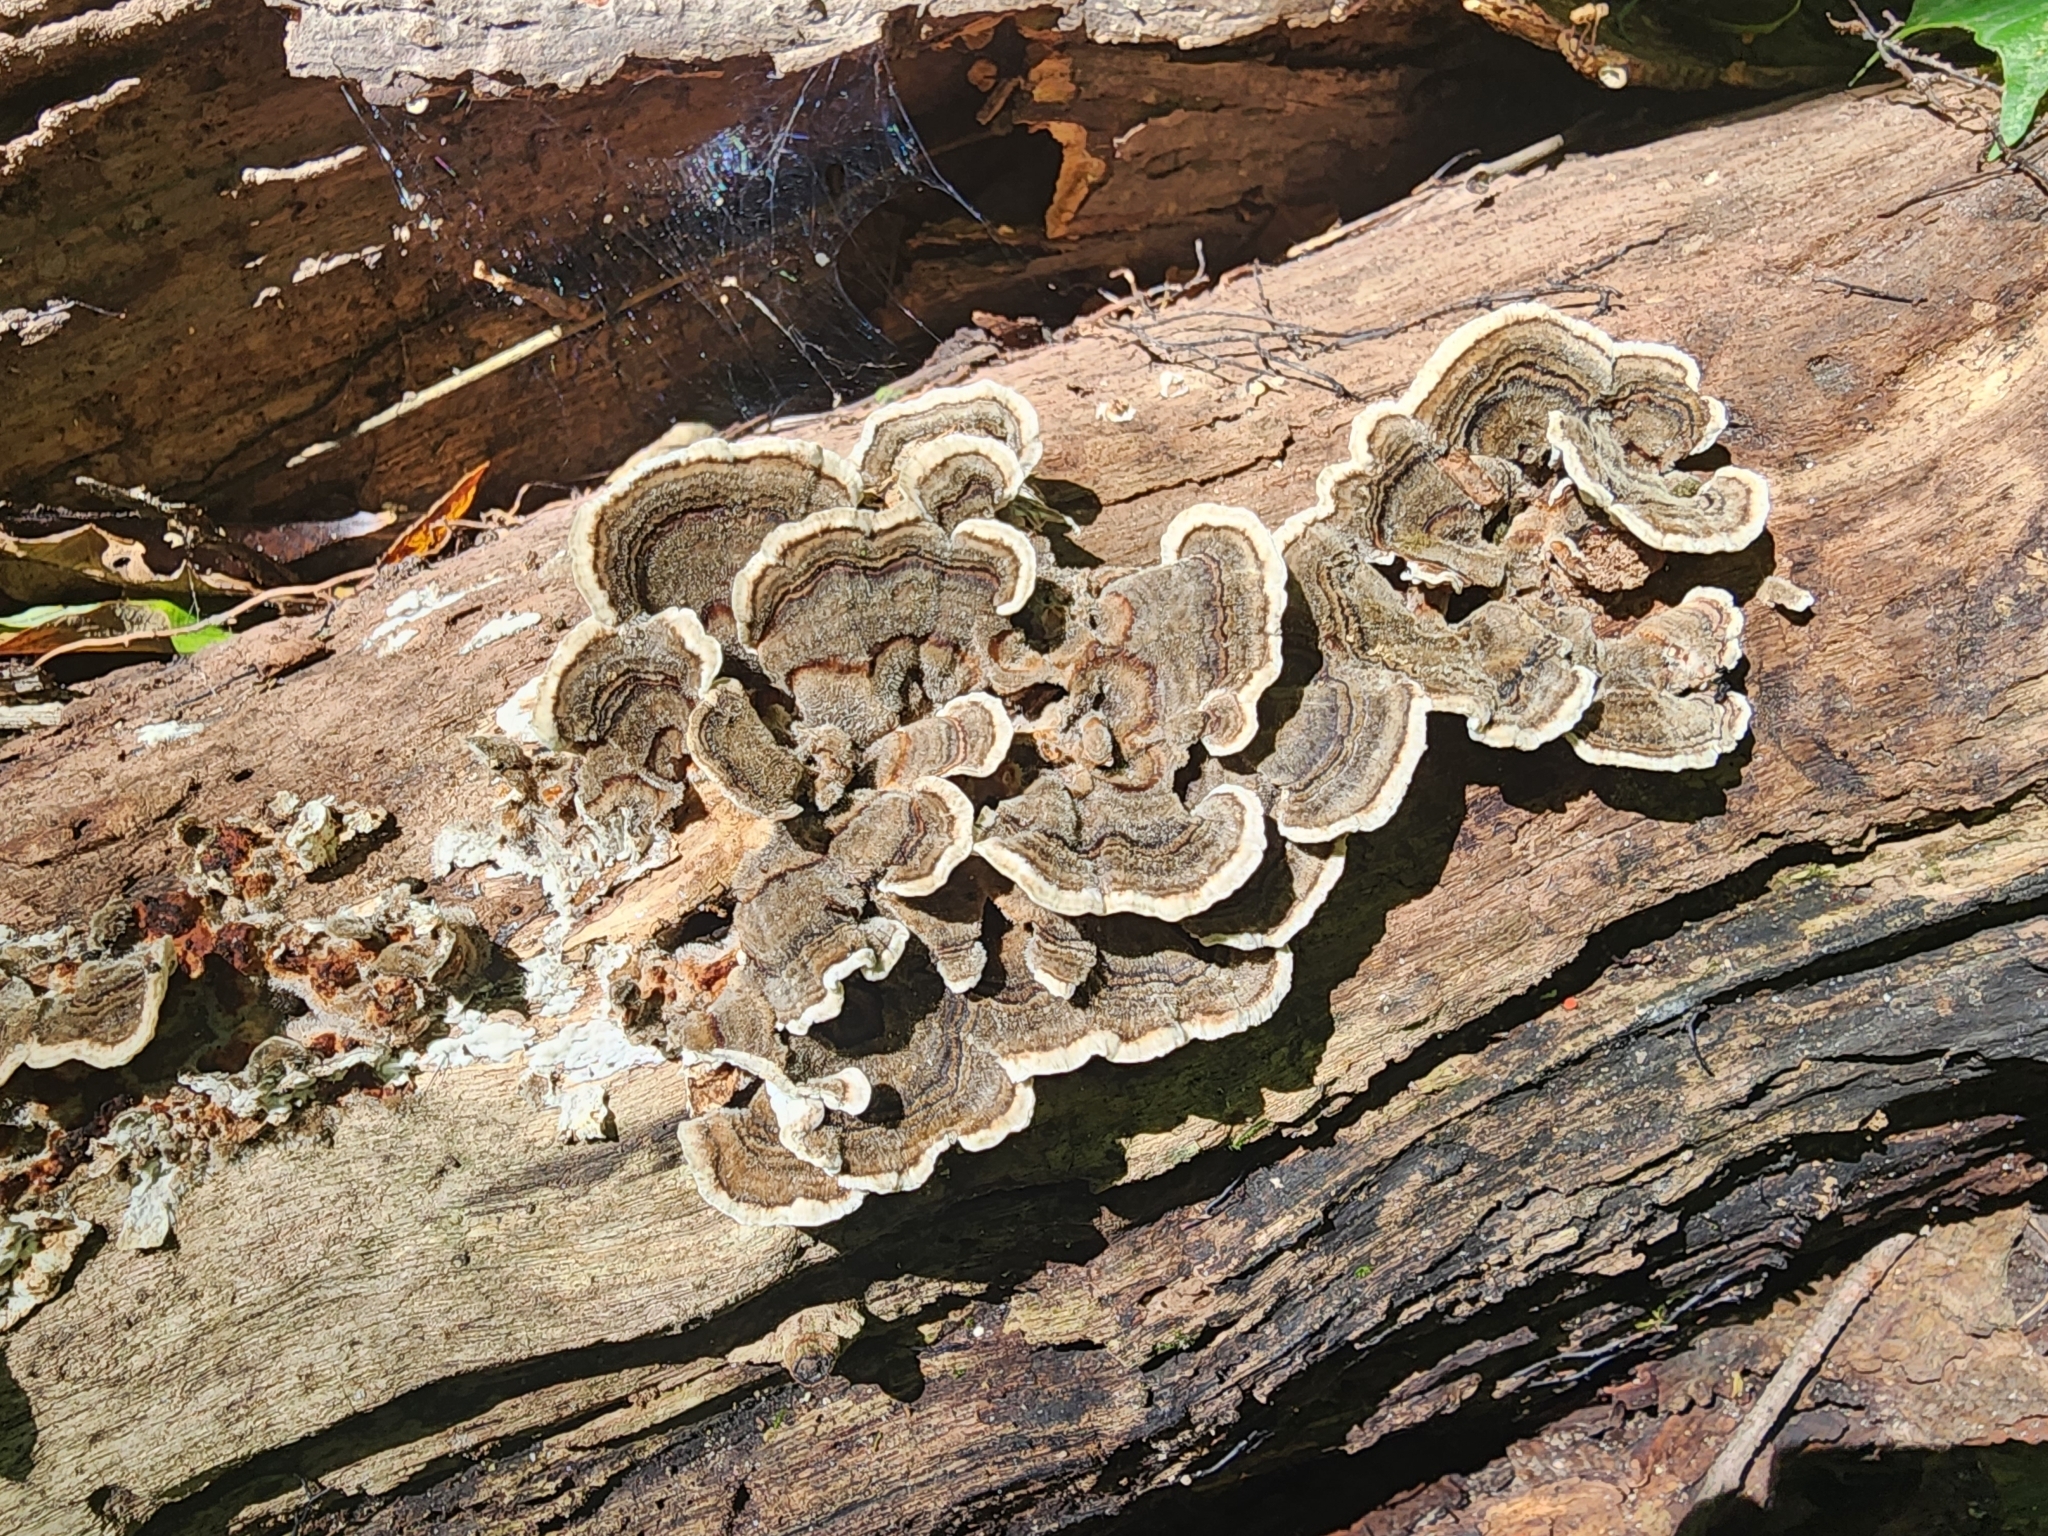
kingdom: Fungi
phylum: Basidiomycota
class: Agaricomycetes
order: Polyporales
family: Polyporaceae
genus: Trametes
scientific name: Trametes versicolor
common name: Turkeytail
